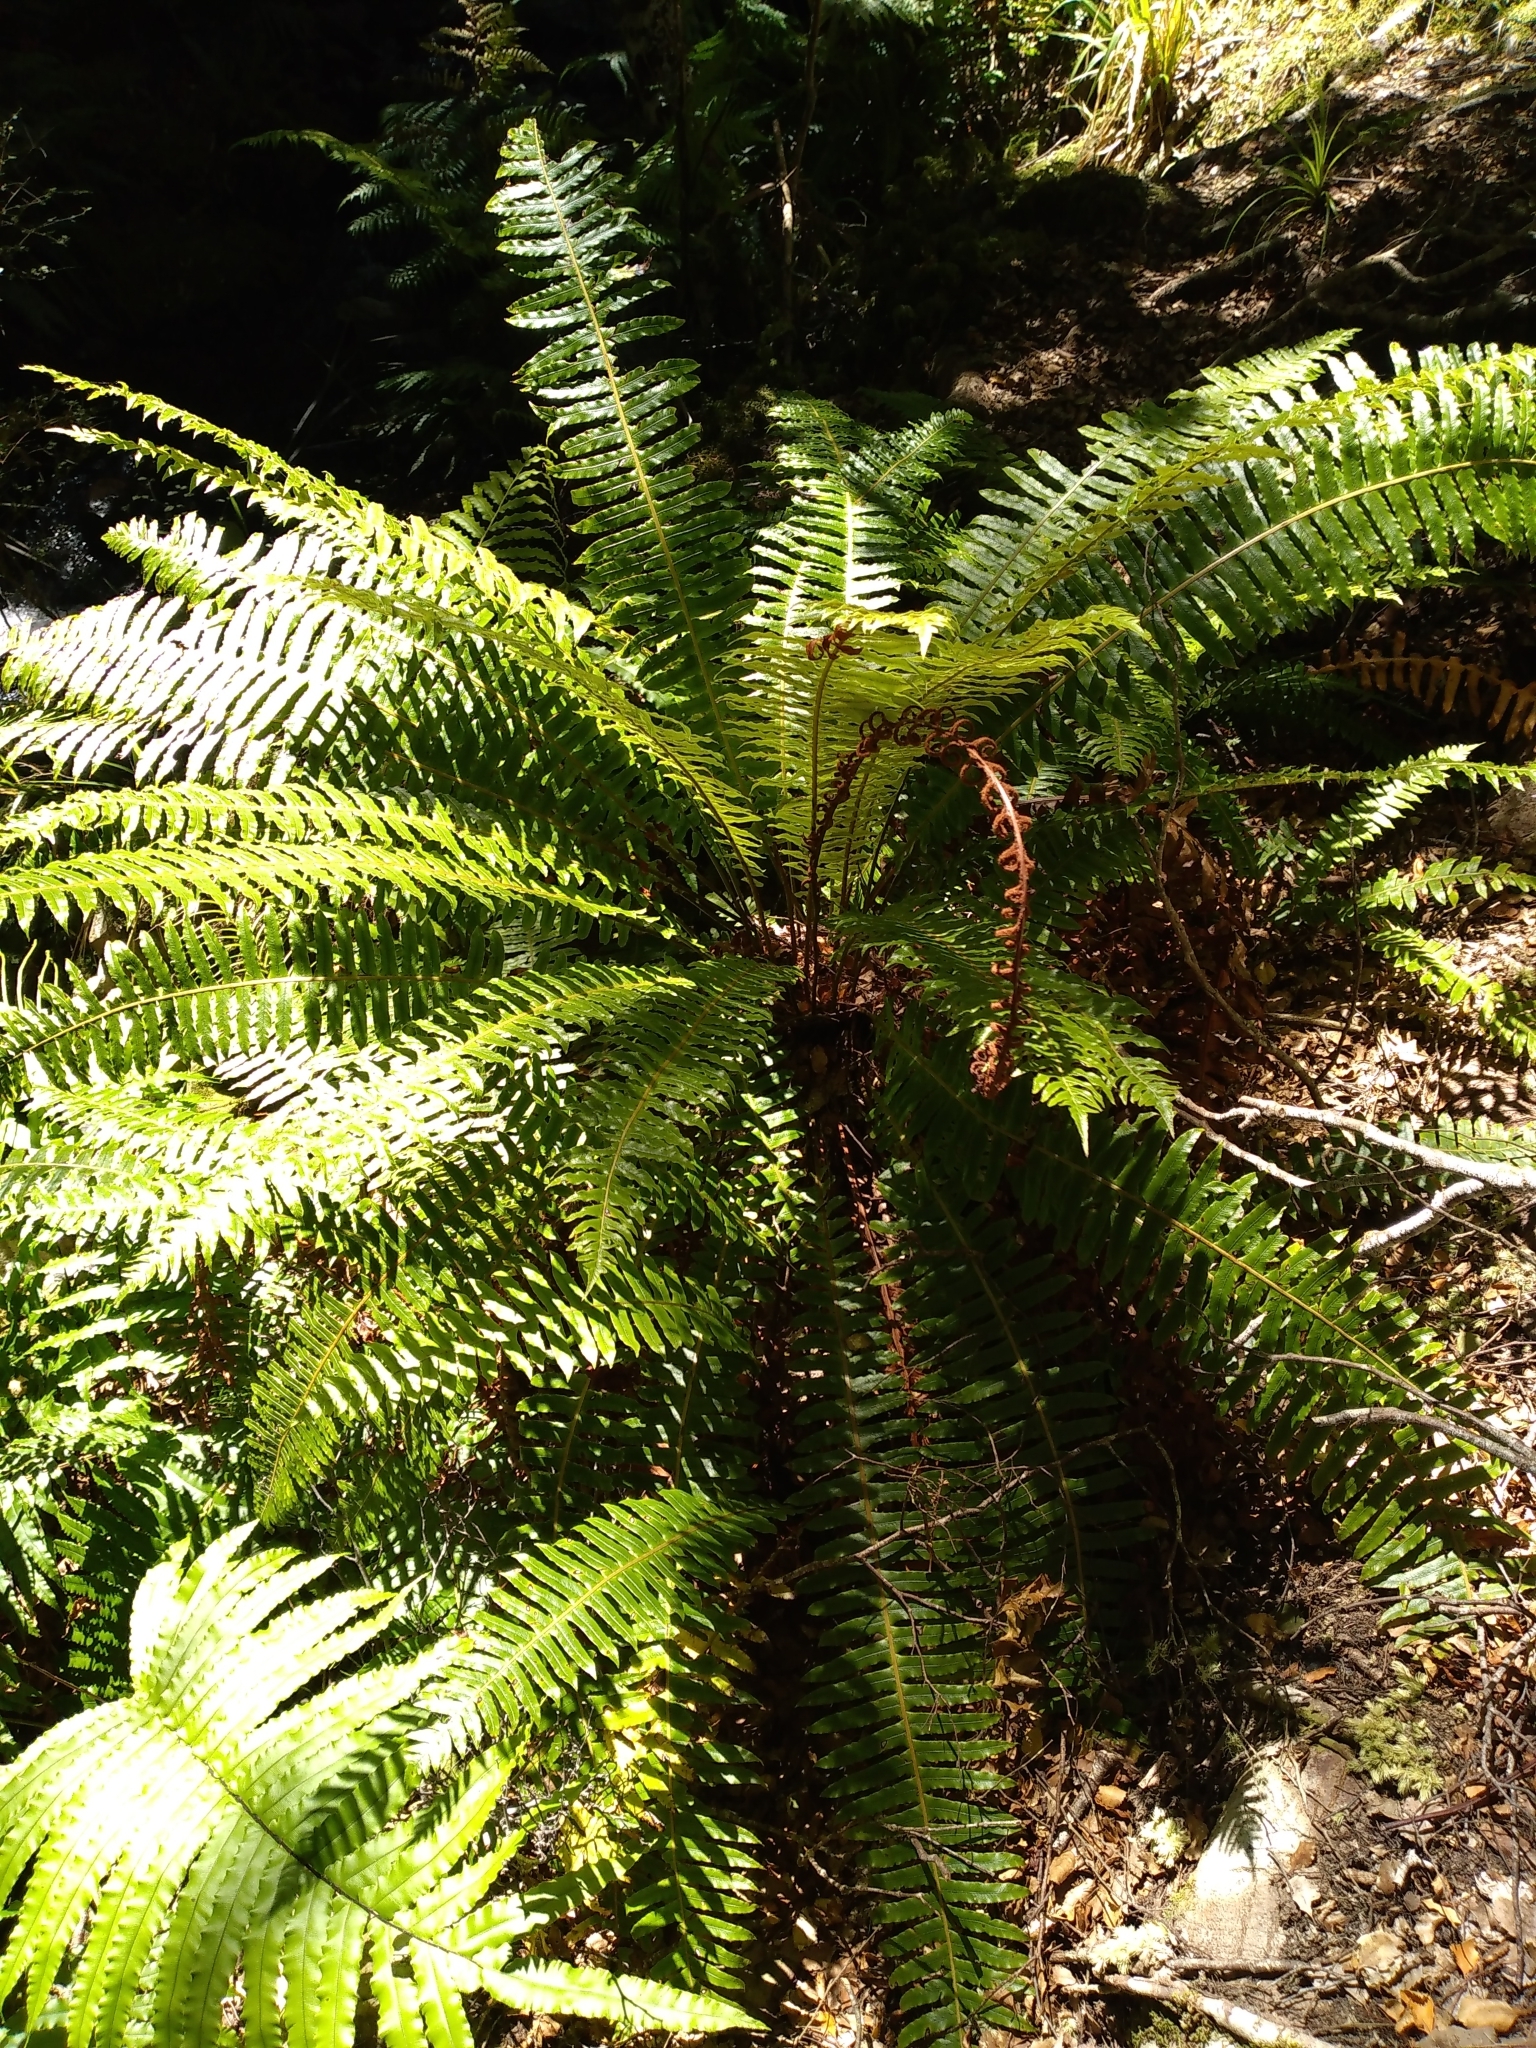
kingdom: Plantae
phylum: Tracheophyta
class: Polypodiopsida
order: Polypodiales
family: Blechnaceae
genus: Lomaria
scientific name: Lomaria discolor
